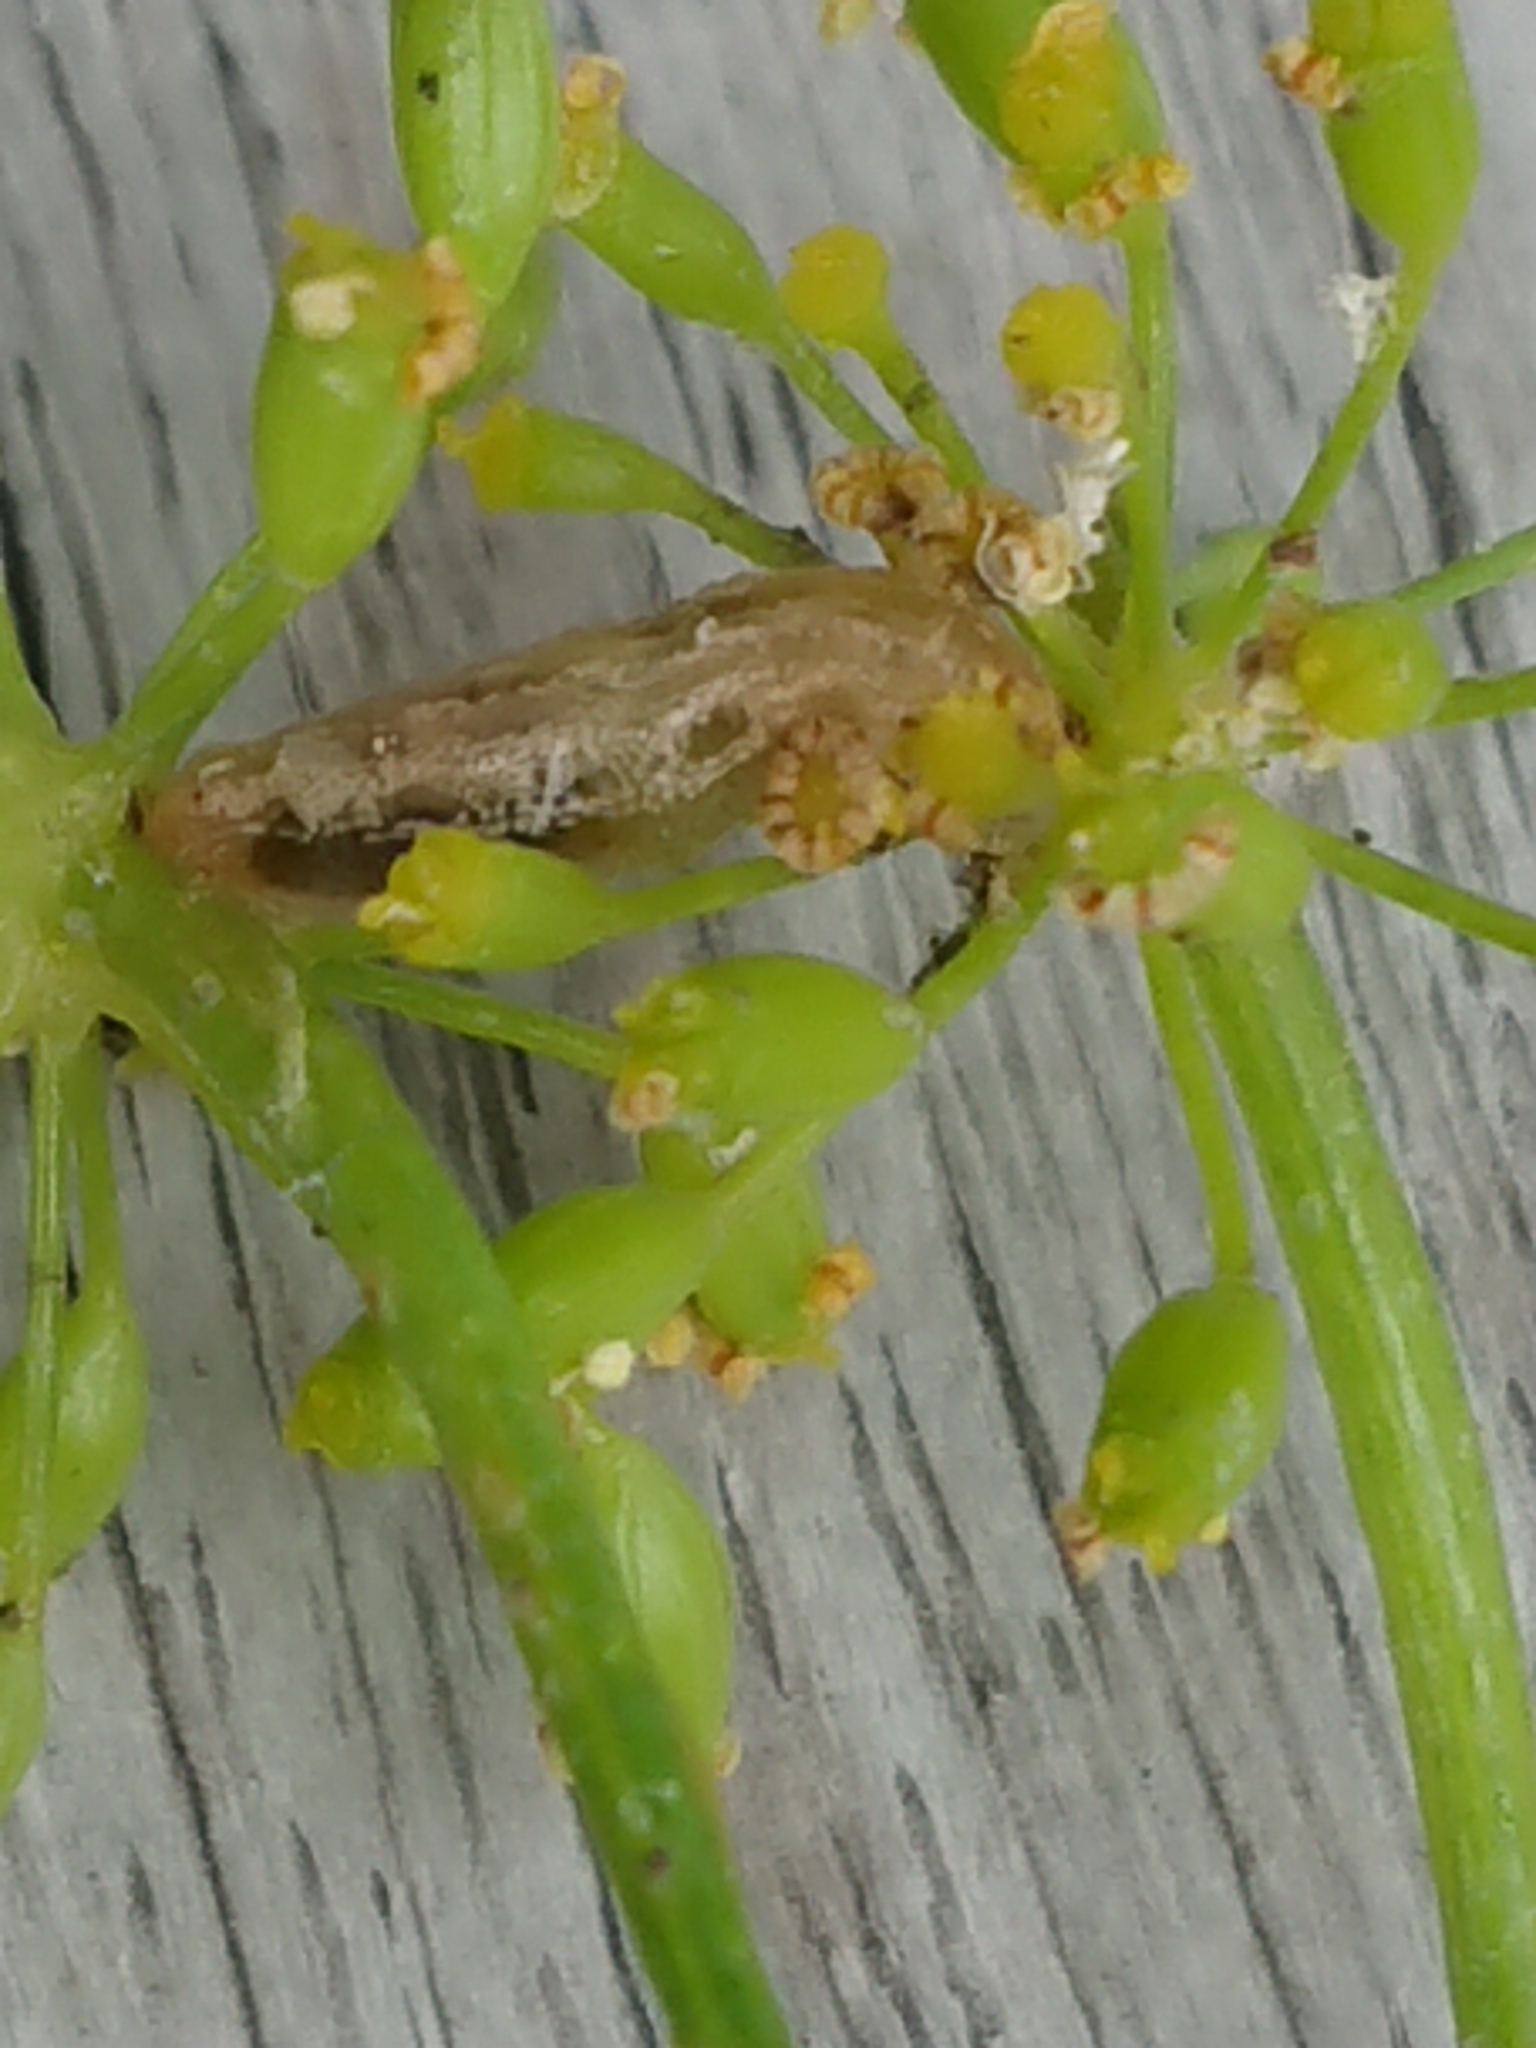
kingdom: Animalia
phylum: Arthropoda
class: Insecta
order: Hymenoptera
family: Ichneumonidae
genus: Diplazon
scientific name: Diplazon laetatorius
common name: Parasitoid wasp
